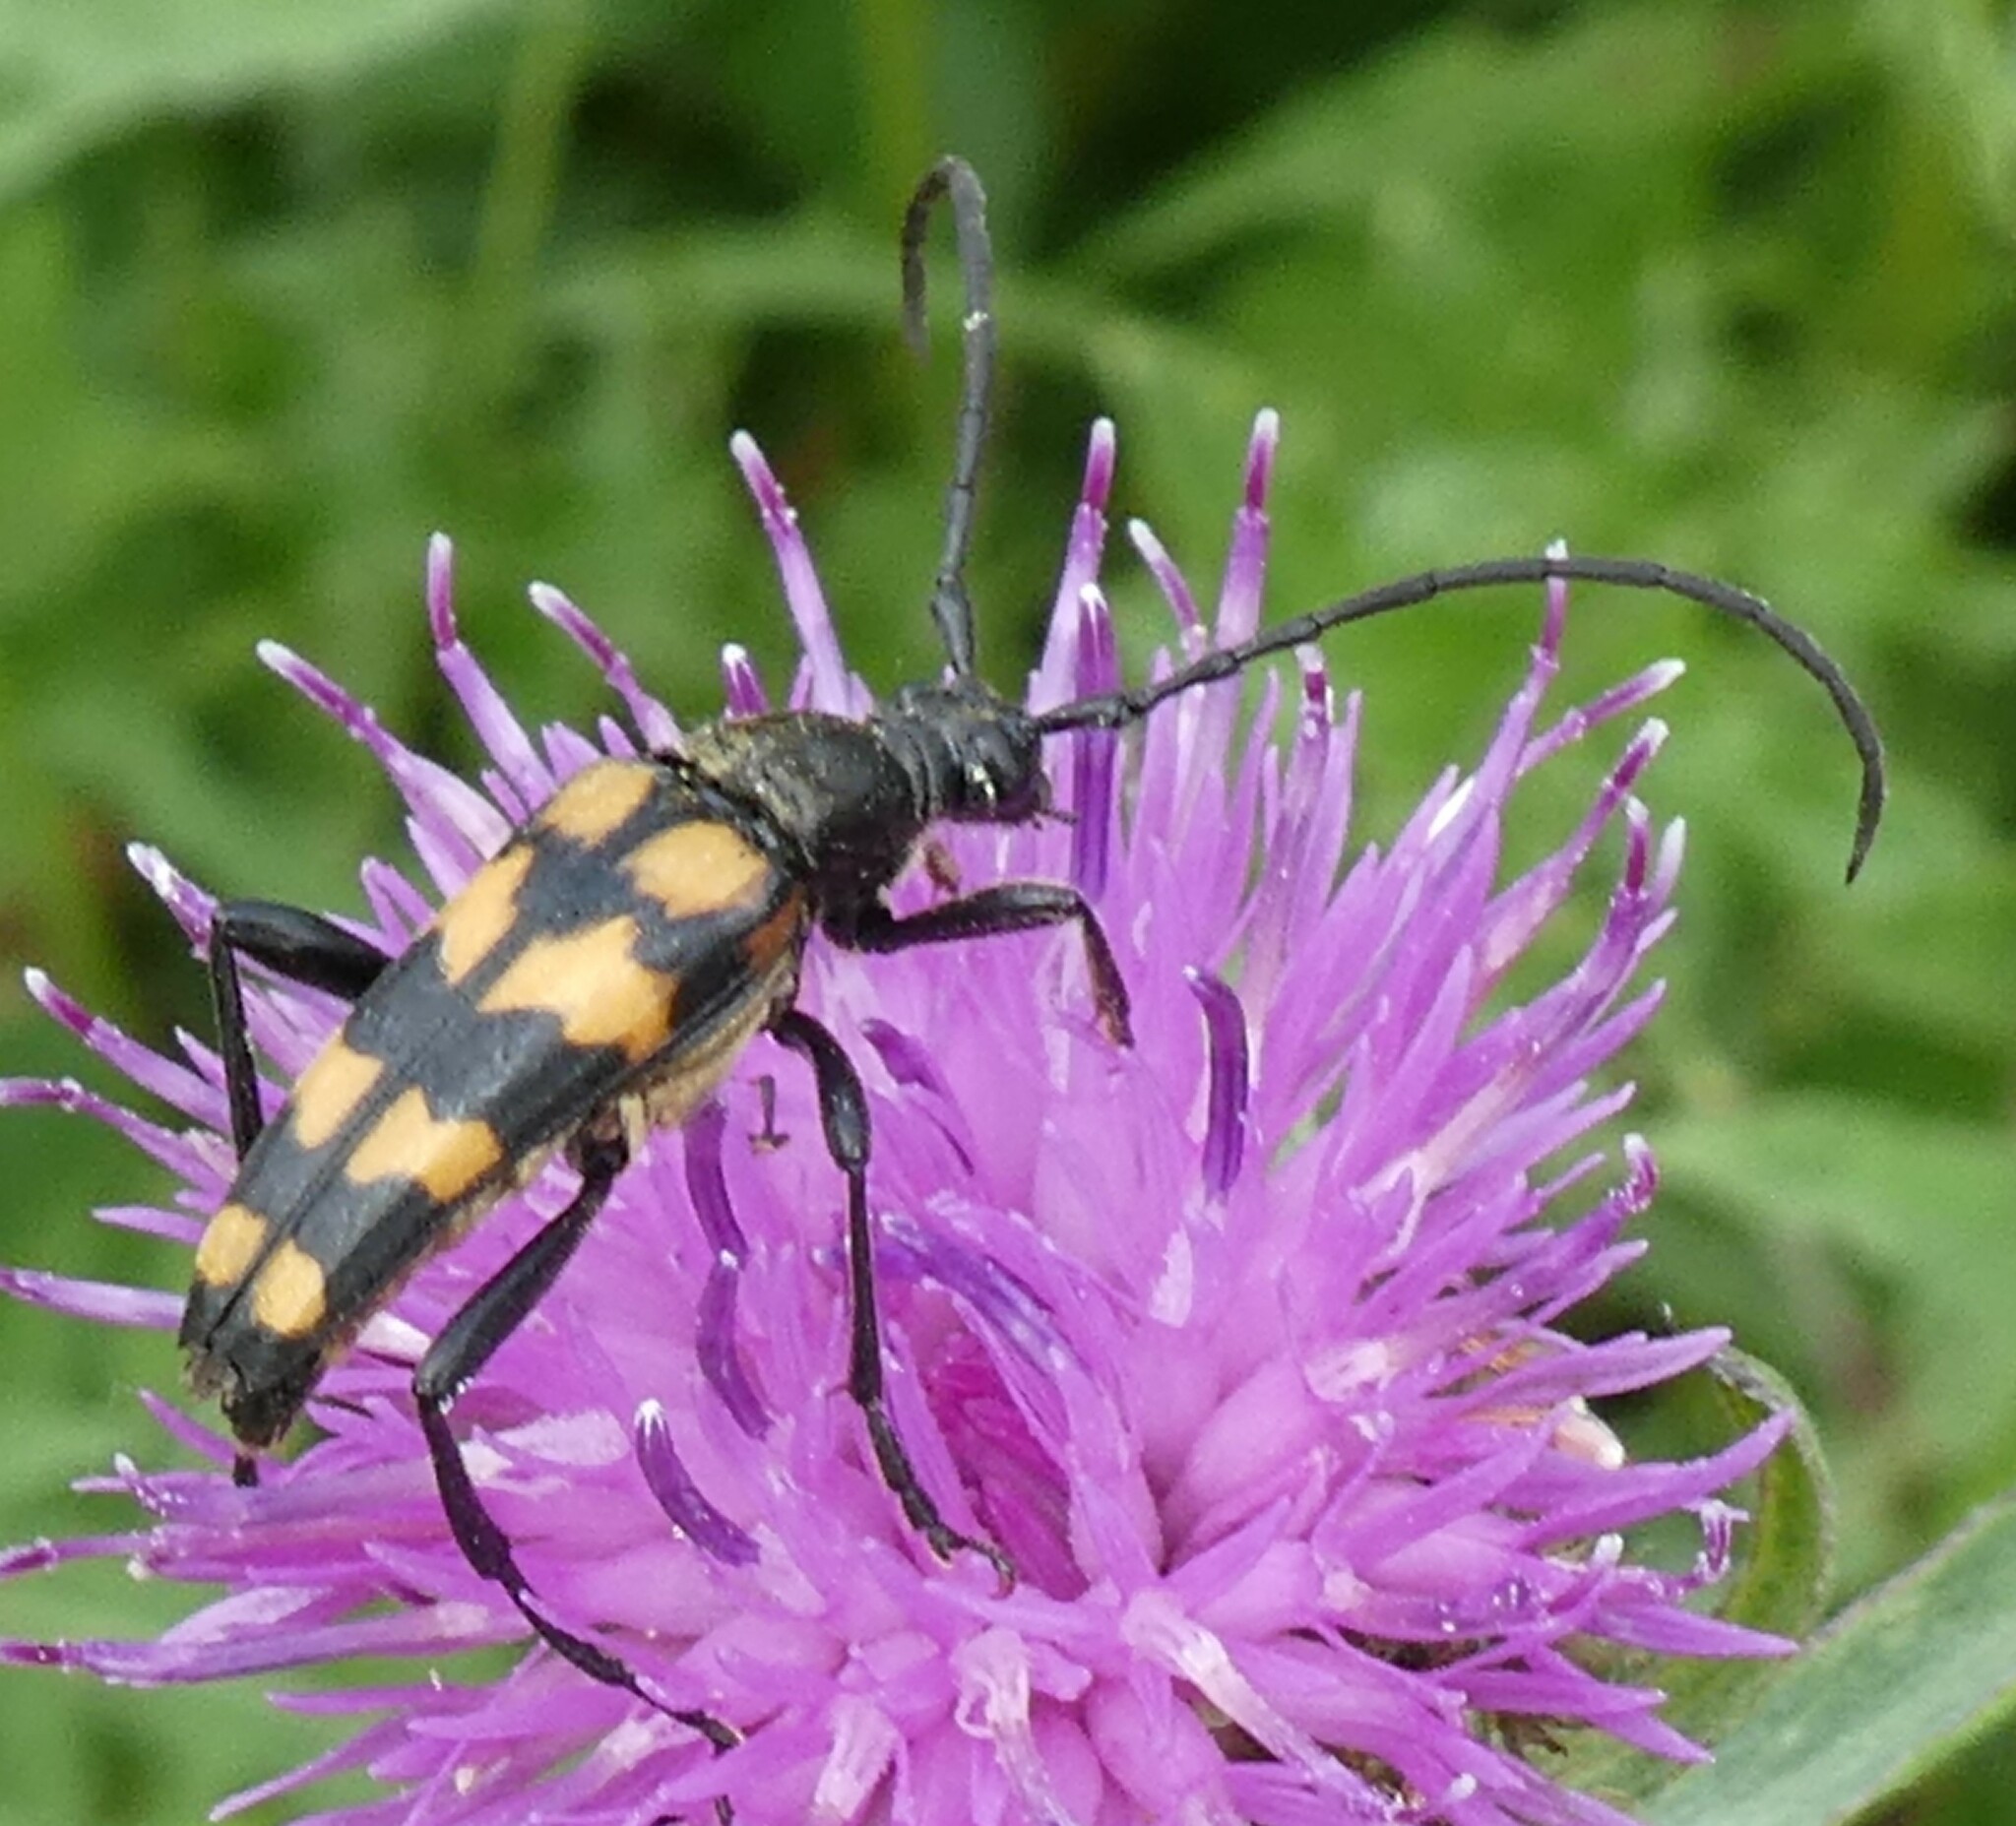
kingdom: Animalia
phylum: Arthropoda
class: Insecta
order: Coleoptera
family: Cerambycidae
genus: Leptura
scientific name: Leptura quadrifasciata
